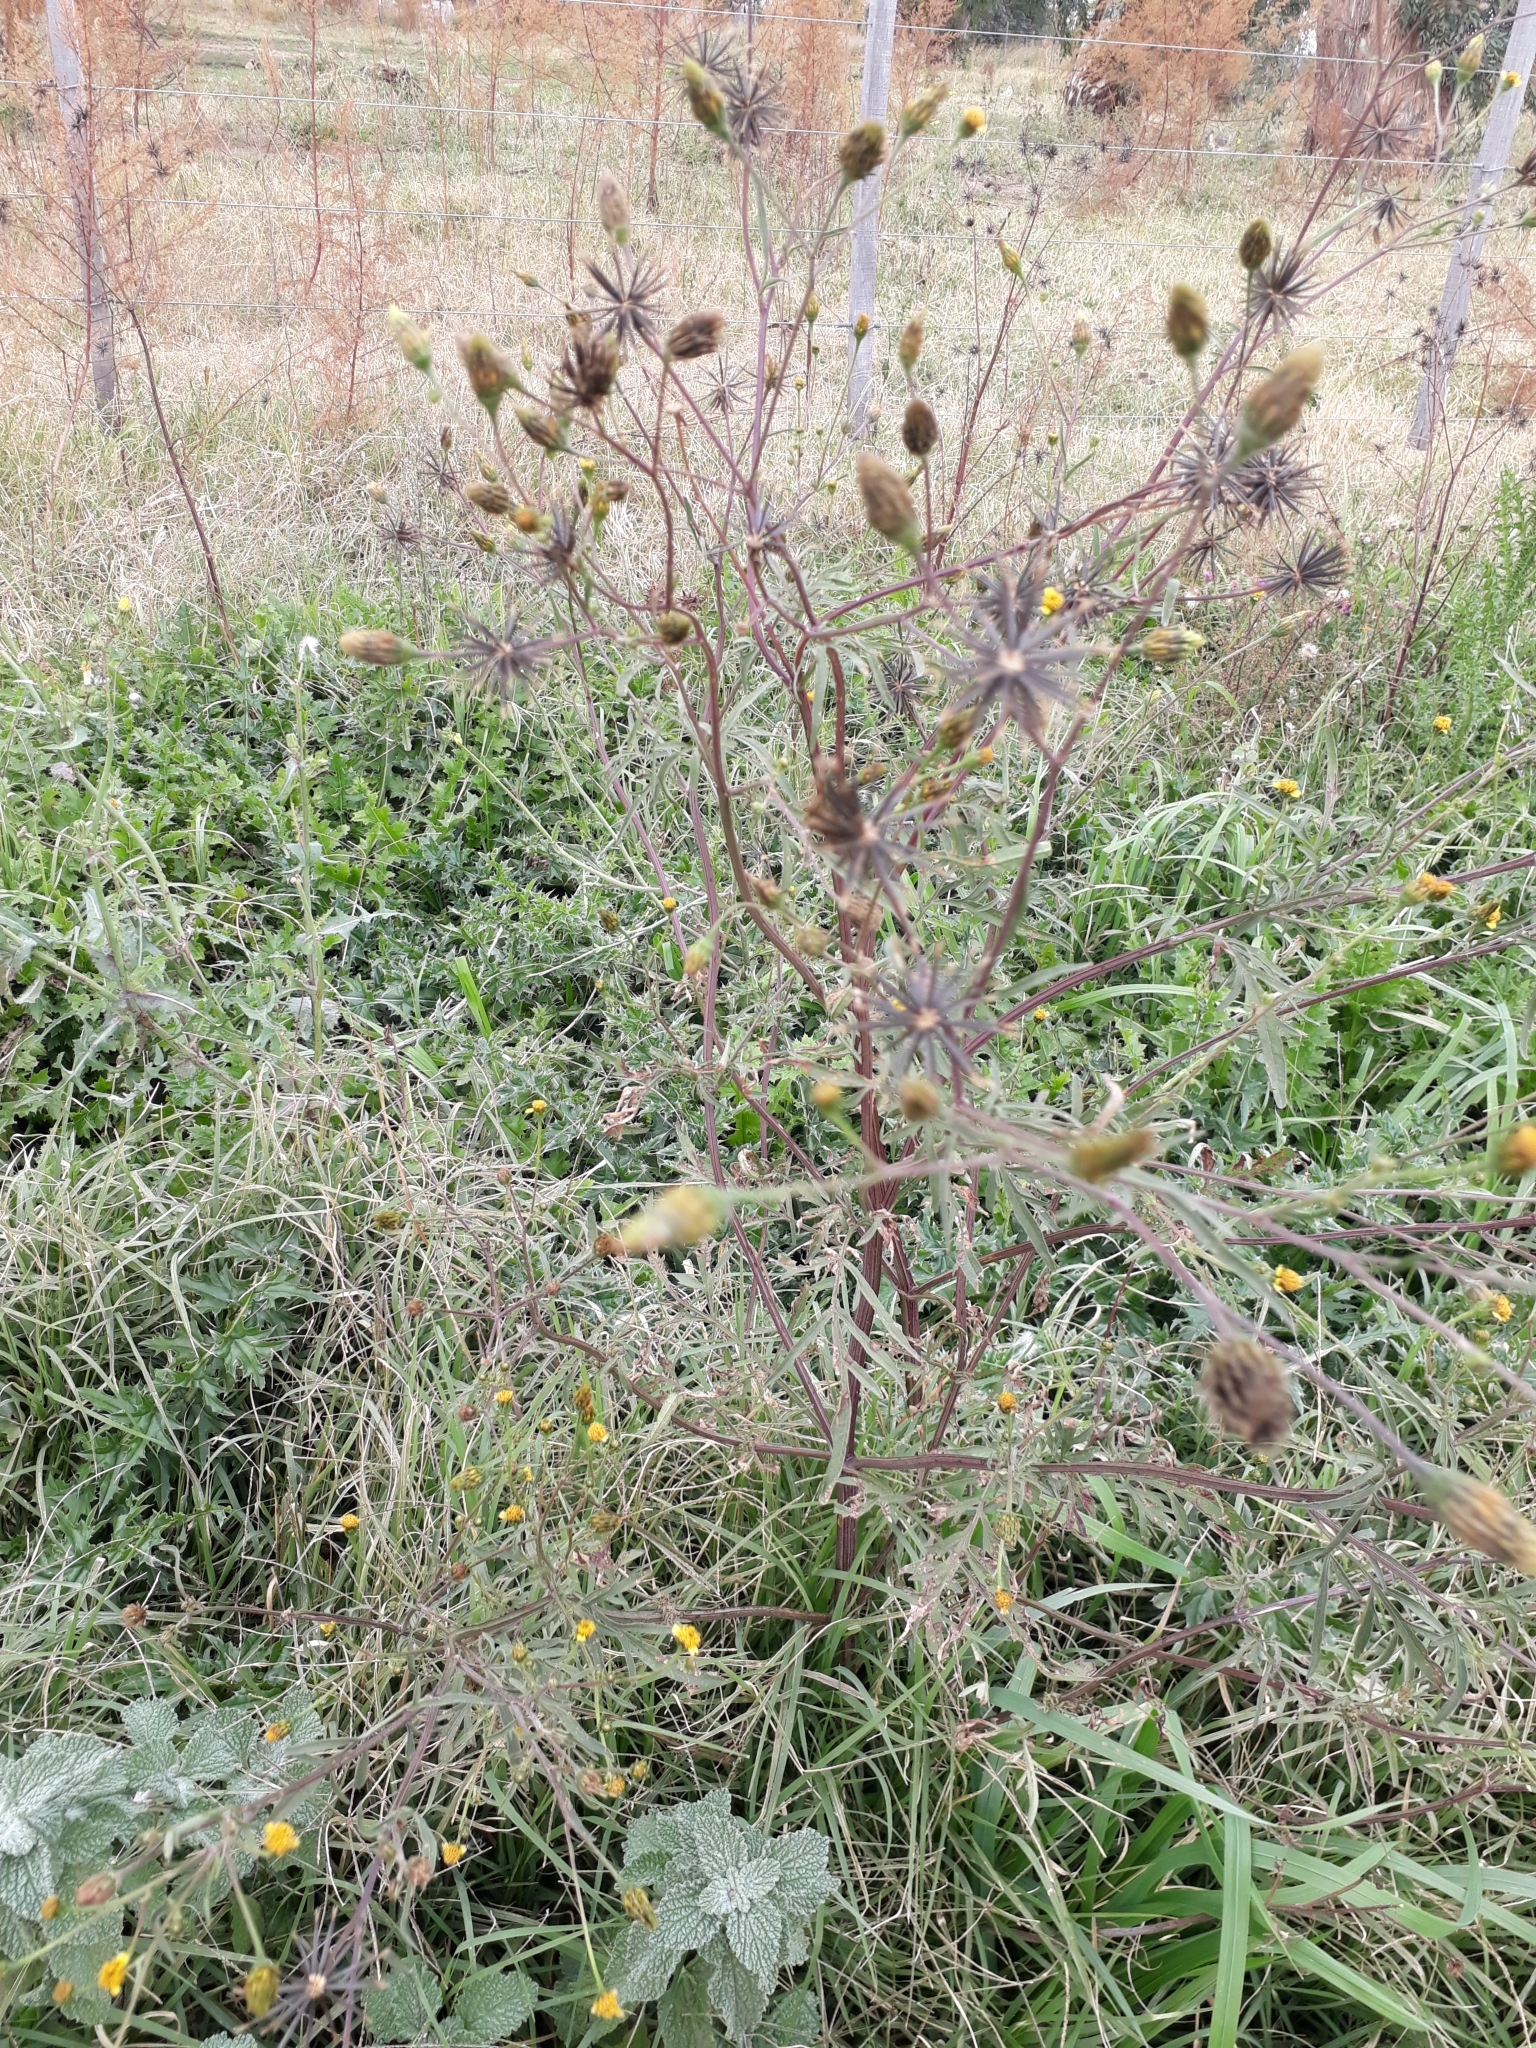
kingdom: Plantae
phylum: Tracheophyta
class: Magnoliopsida
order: Asterales
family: Asteraceae
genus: Bidens
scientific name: Bidens subalternans
